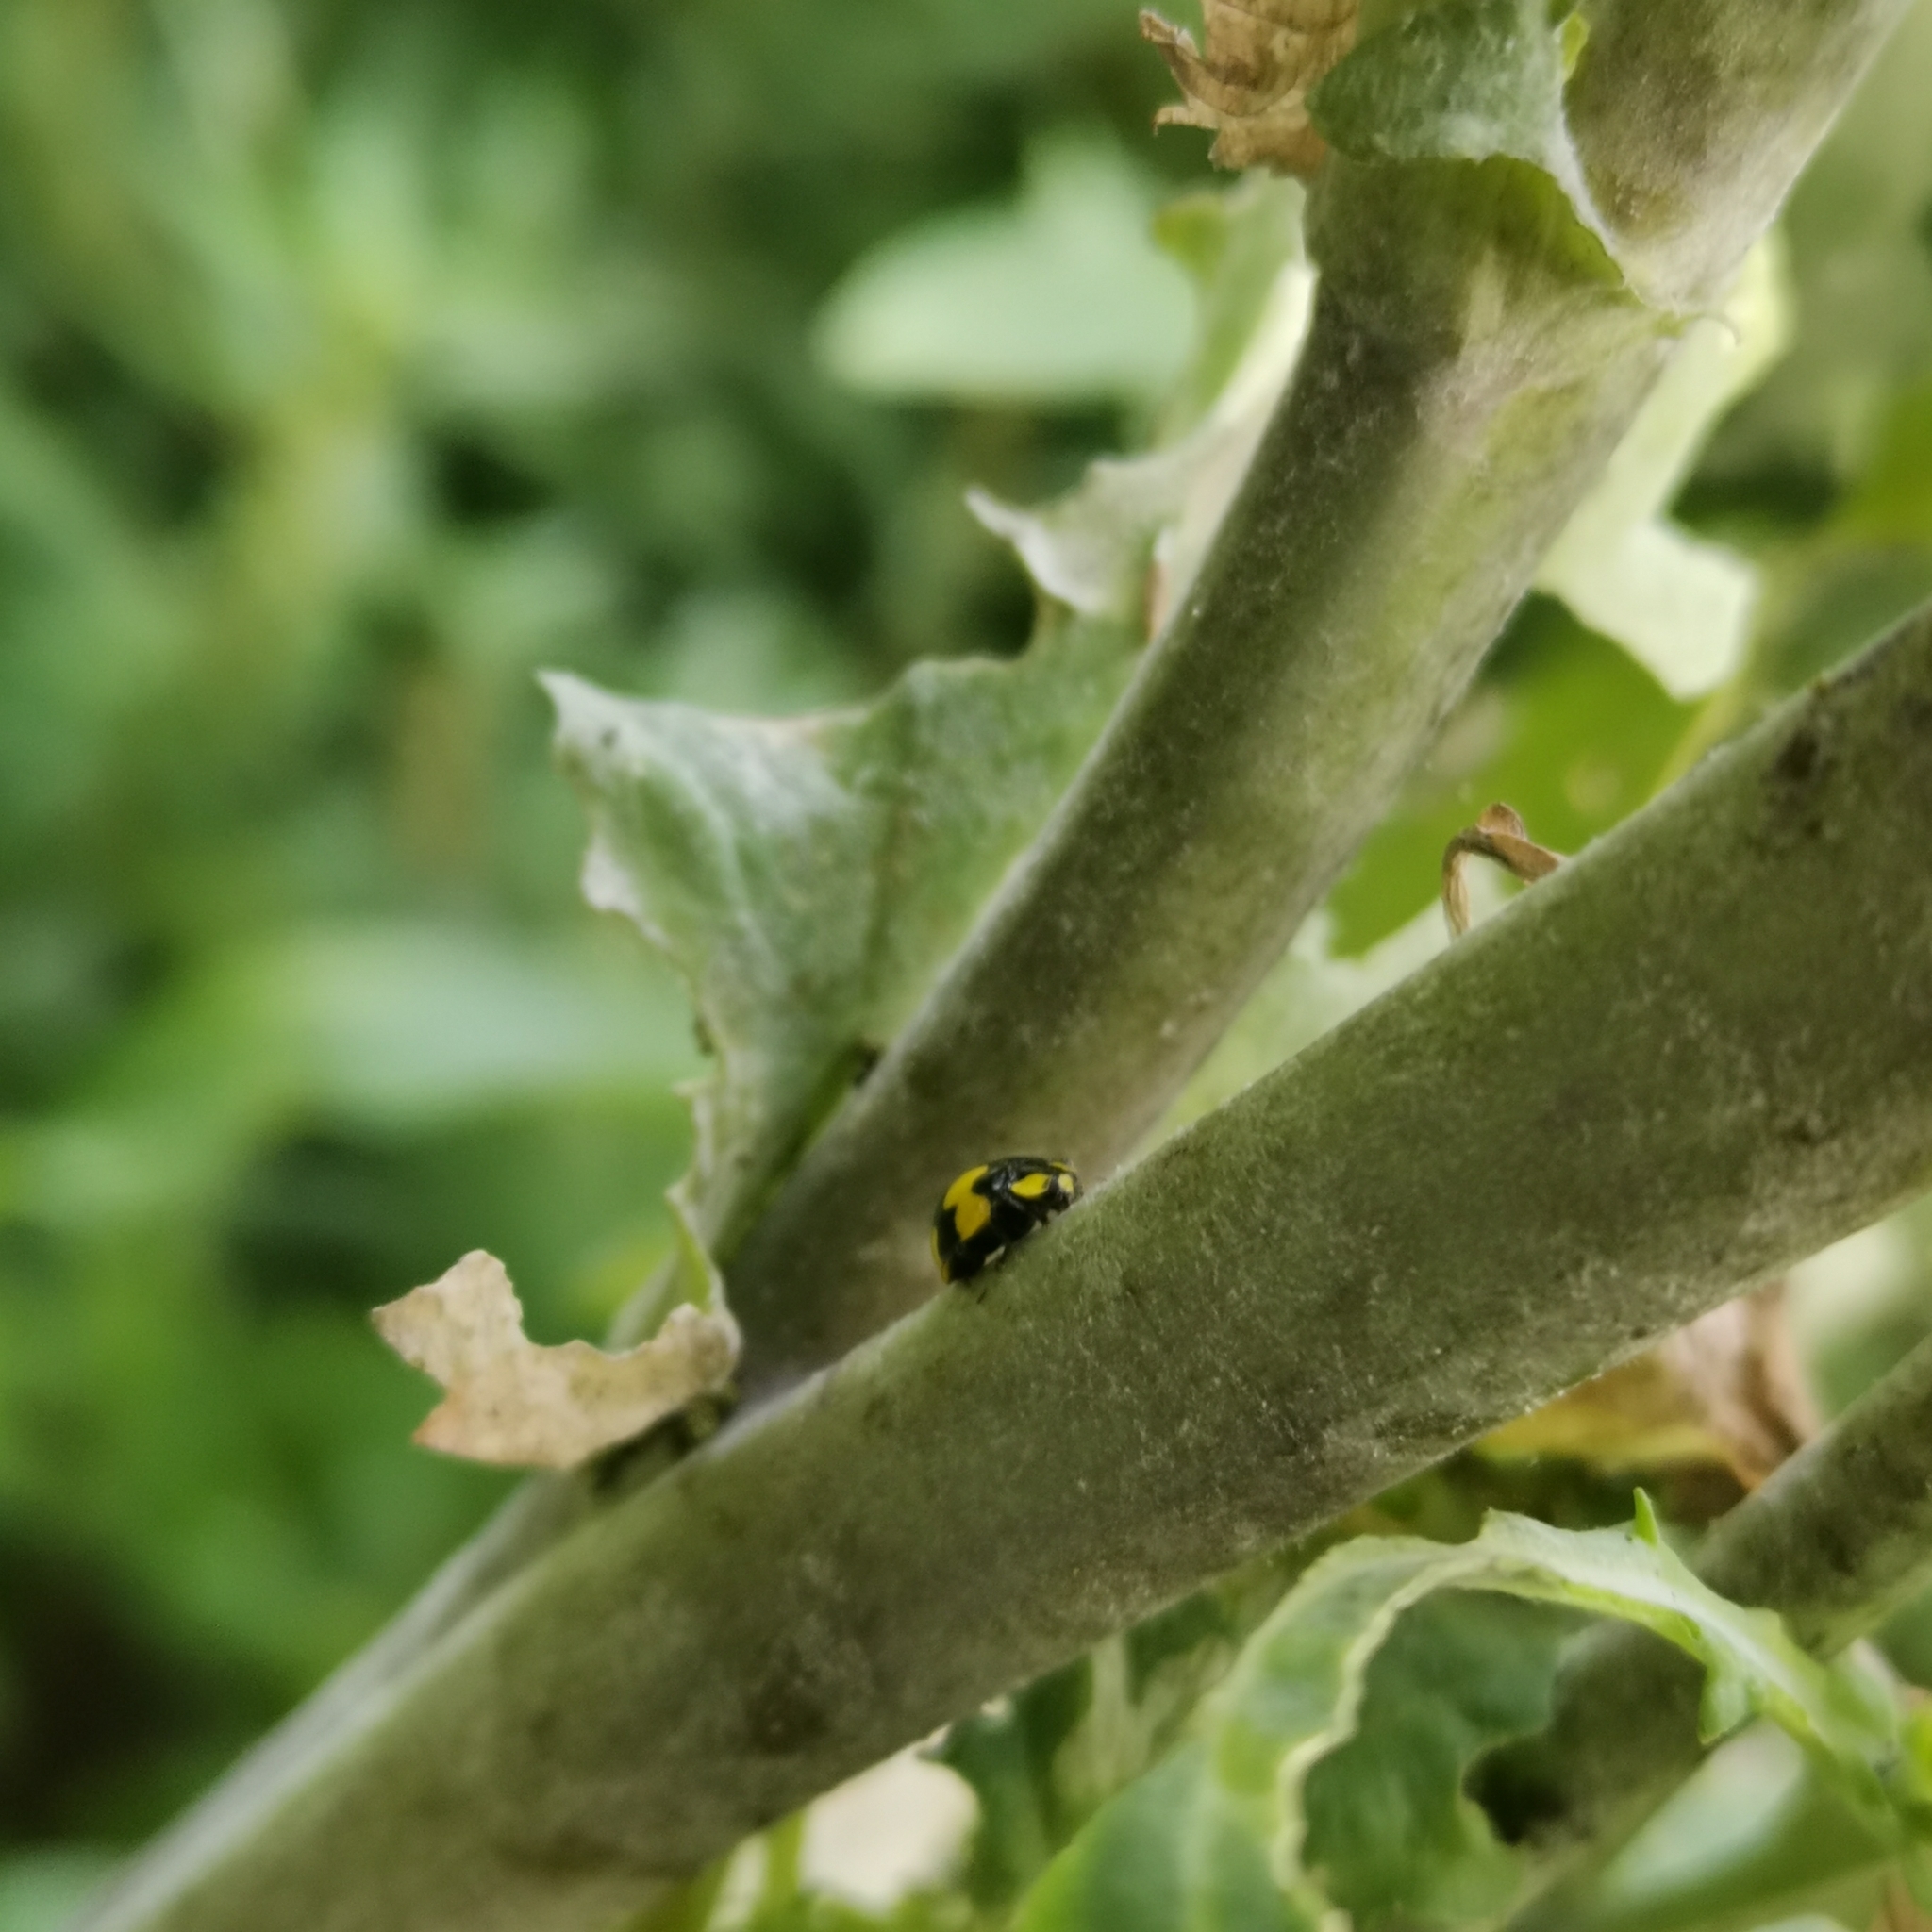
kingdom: Animalia
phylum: Arthropoda
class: Insecta
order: Coleoptera
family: Coccinellidae
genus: Illeis
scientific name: Illeis galbula
